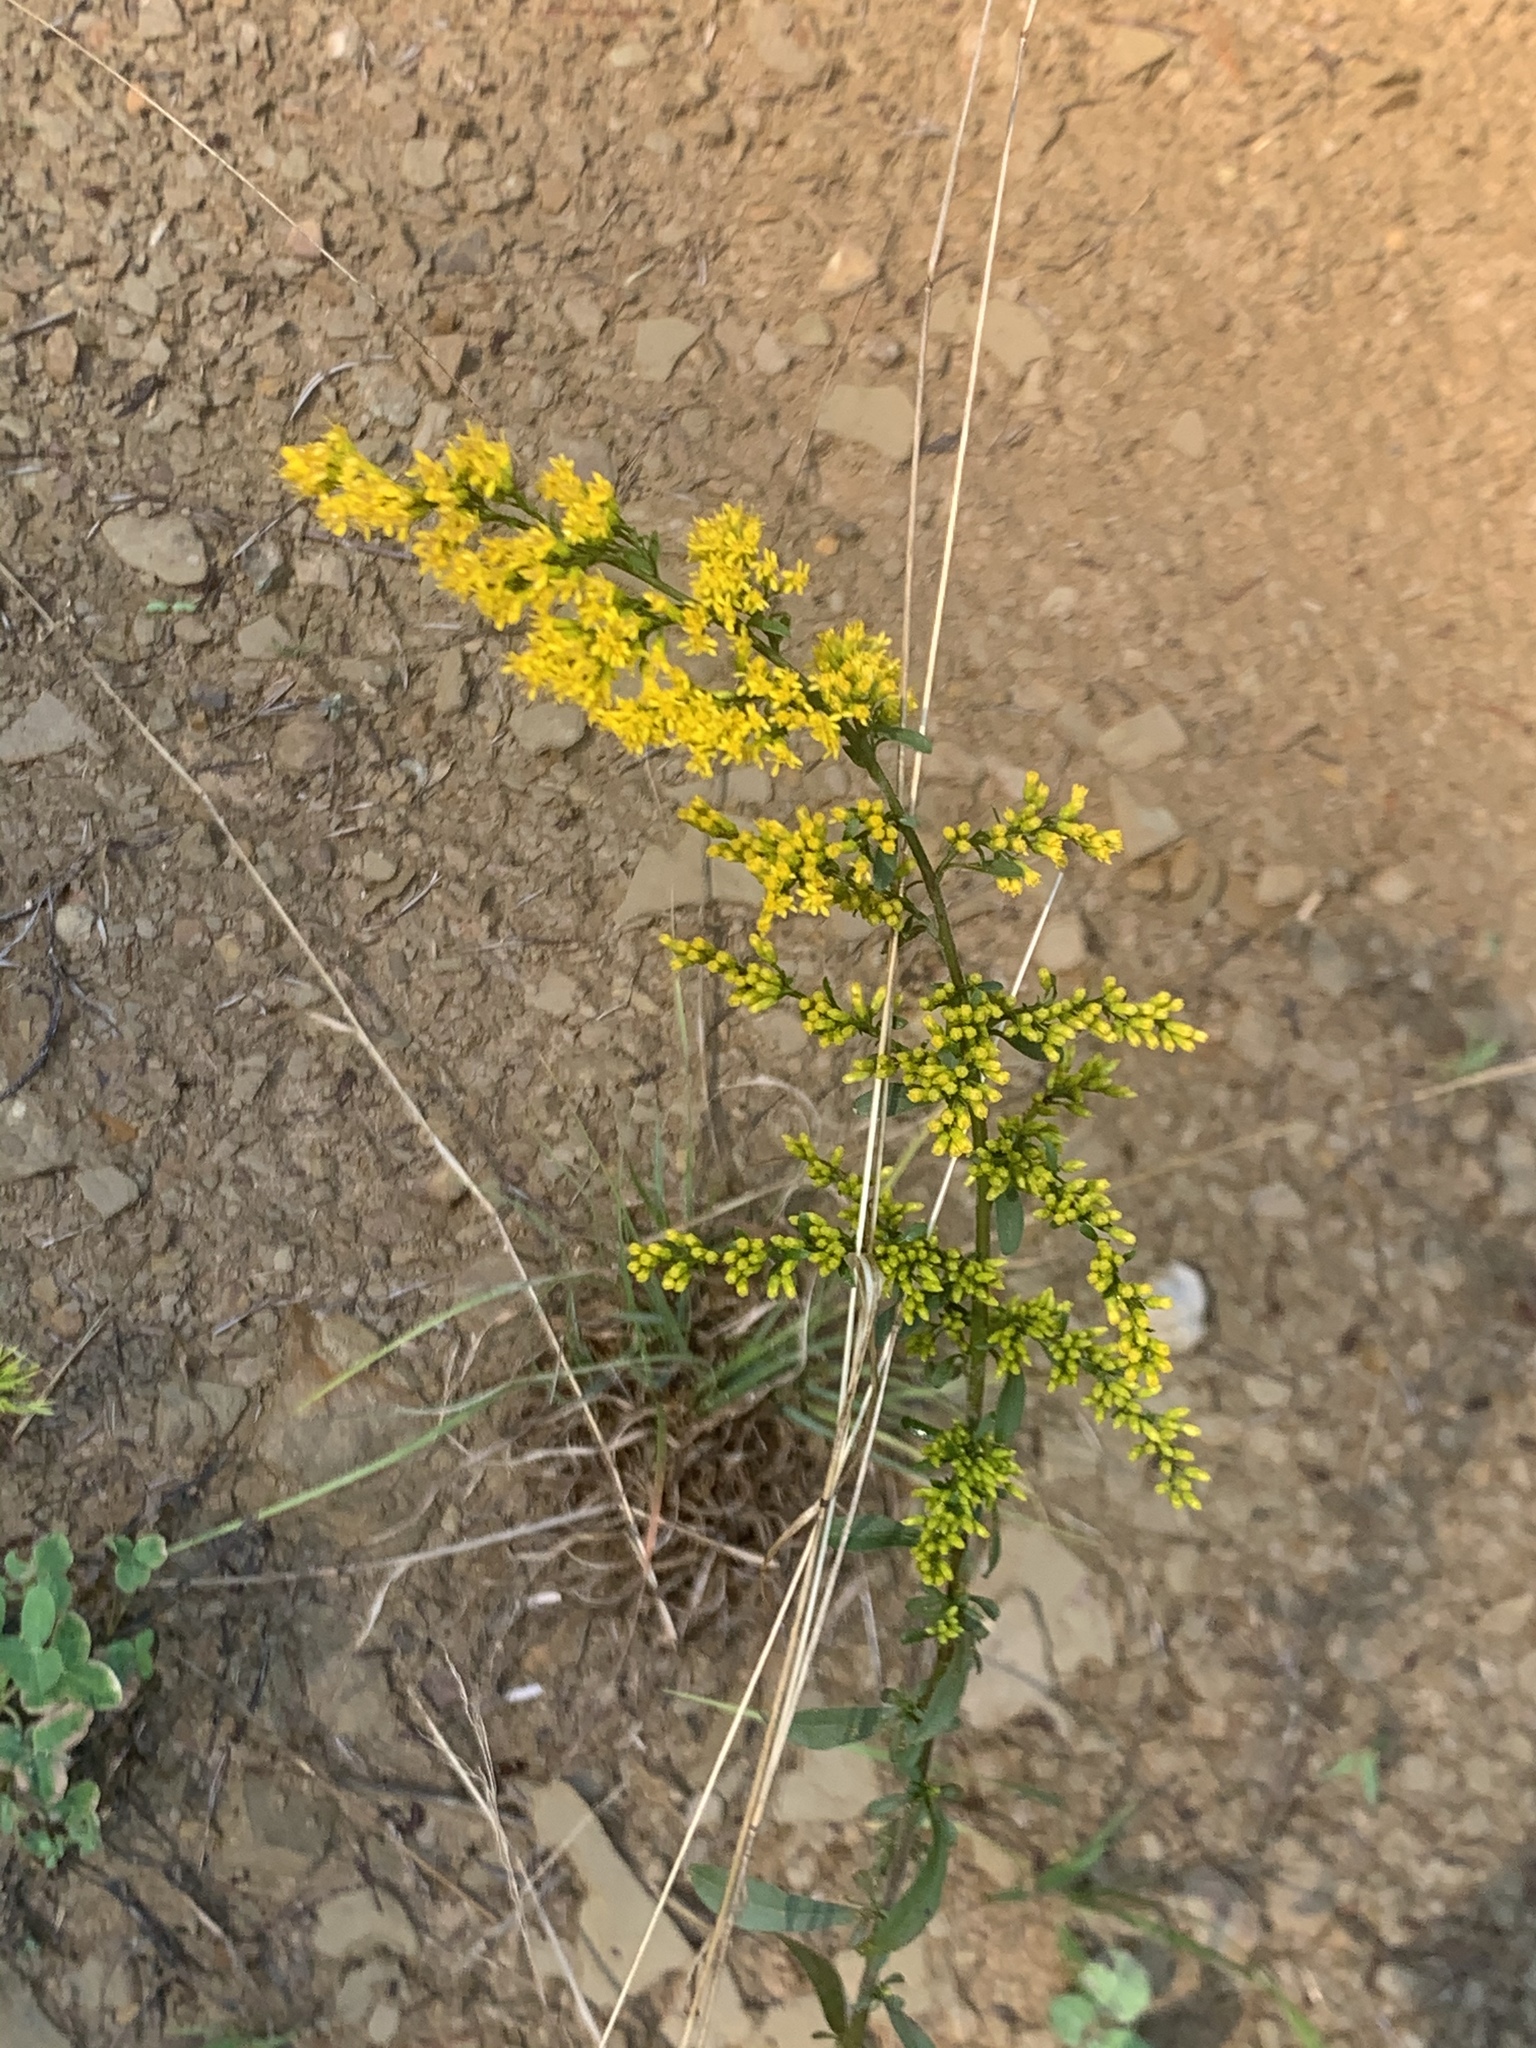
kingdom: Plantae
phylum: Tracheophyta
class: Magnoliopsida
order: Asterales
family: Asteraceae
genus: Solidago
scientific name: Solidago nemoralis
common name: Grey goldenrod
